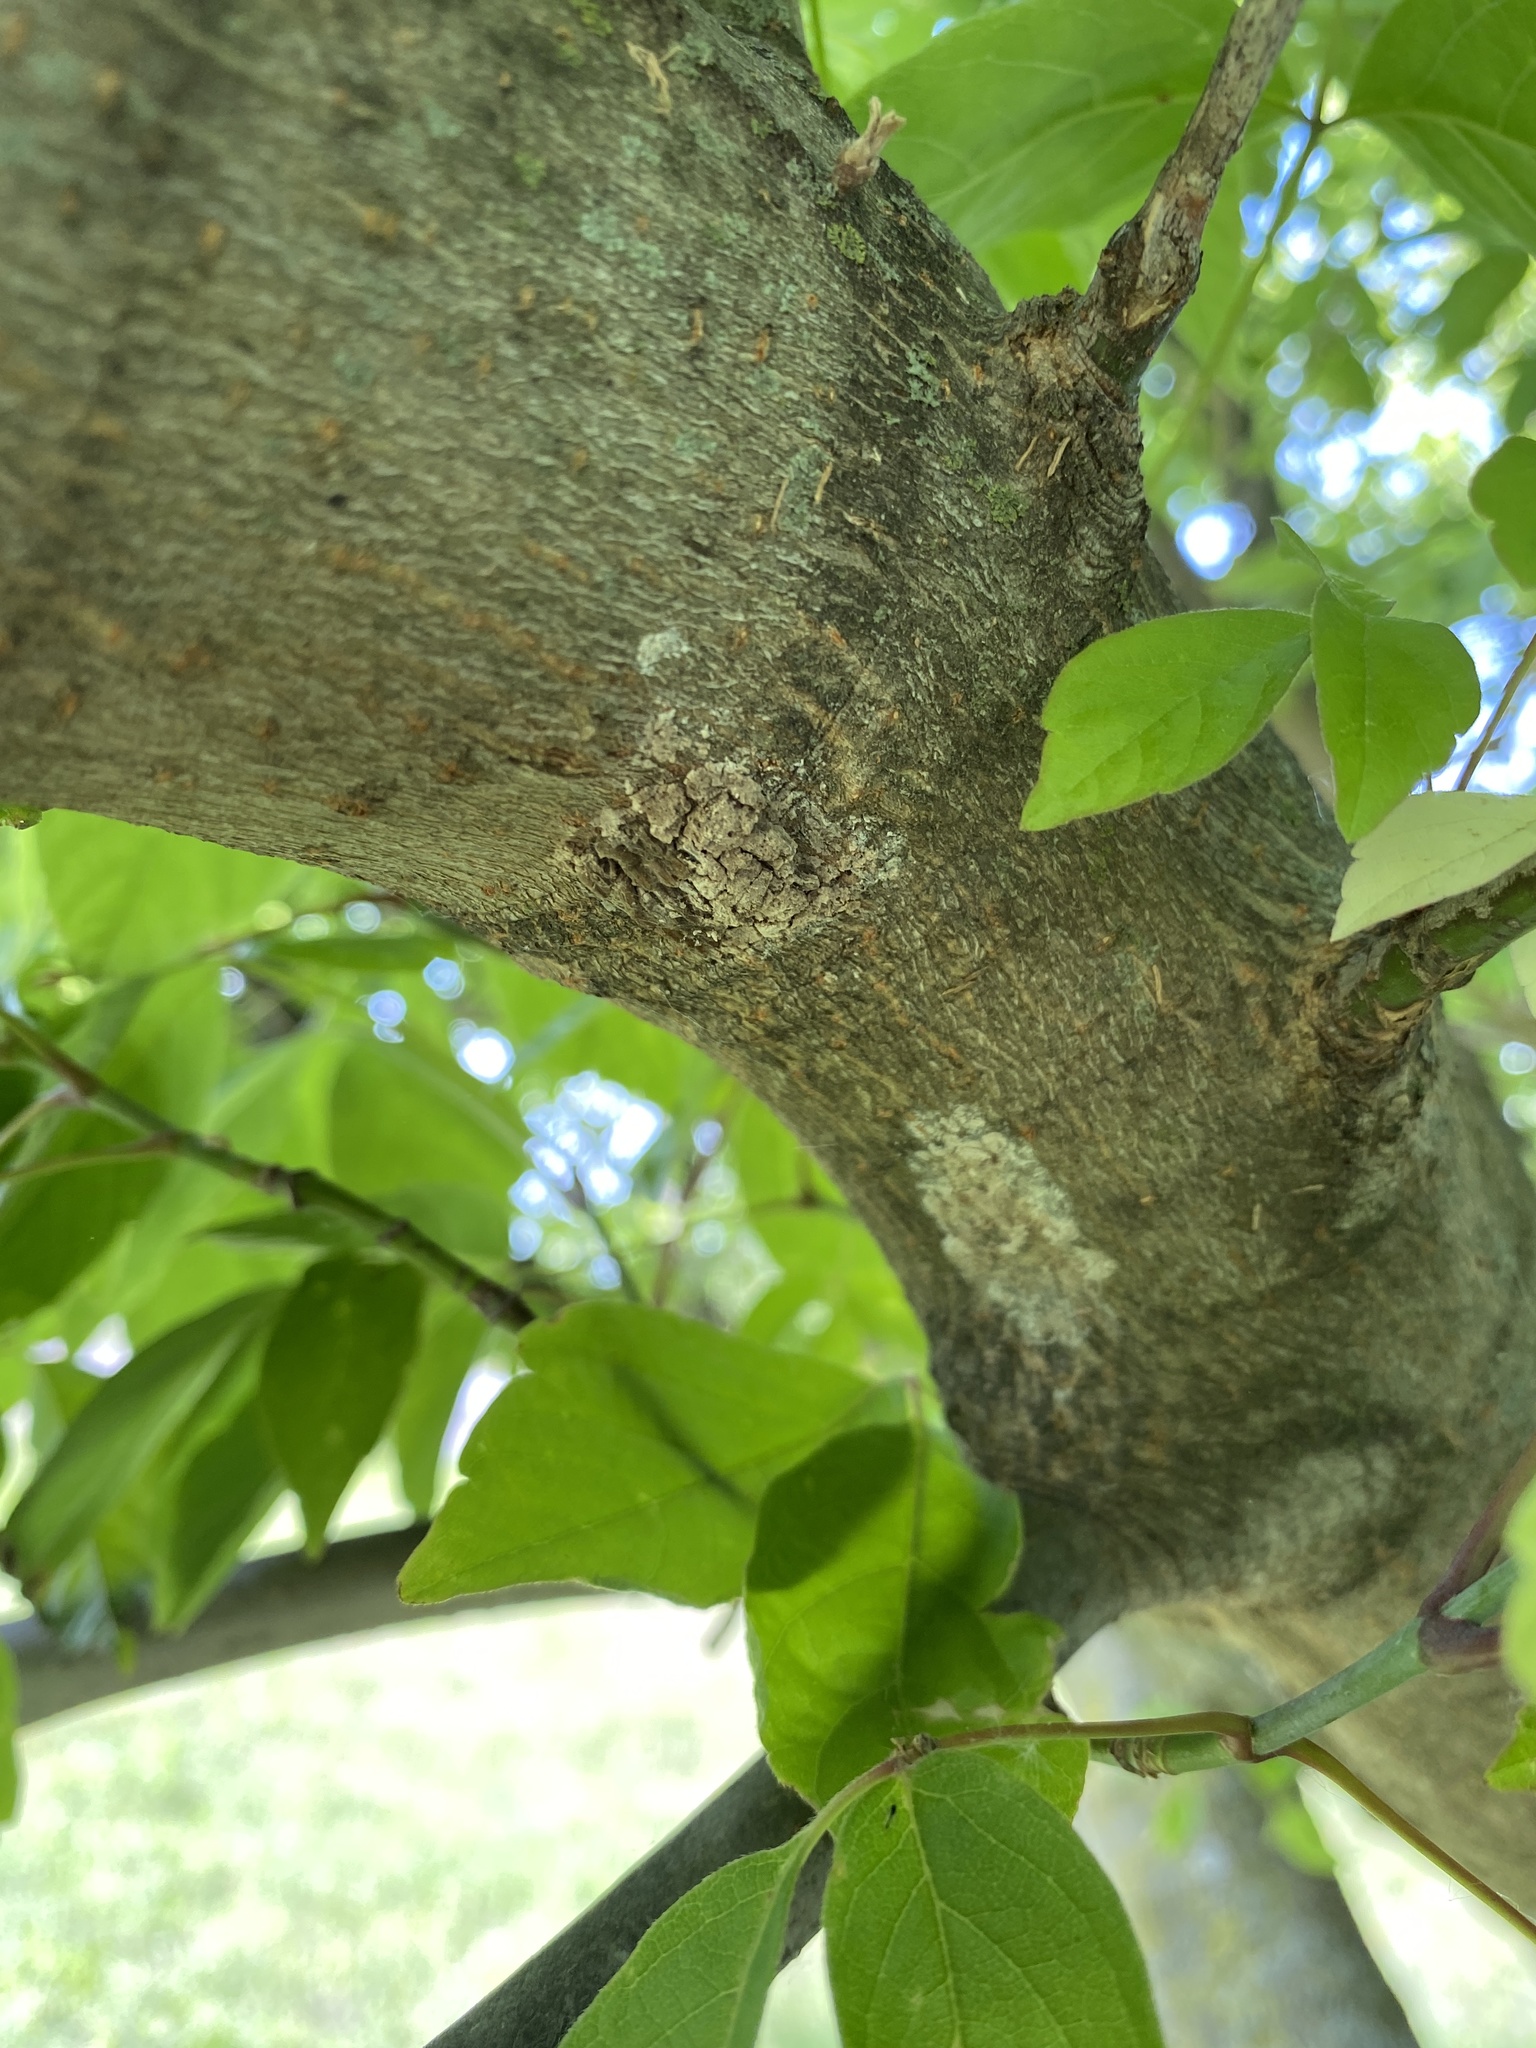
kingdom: Animalia
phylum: Arthropoda
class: Insecta
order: Hemiptera
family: Fulgoridae
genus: Lycorma
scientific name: Lycorma delicatula
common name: Spotted lanternfly
